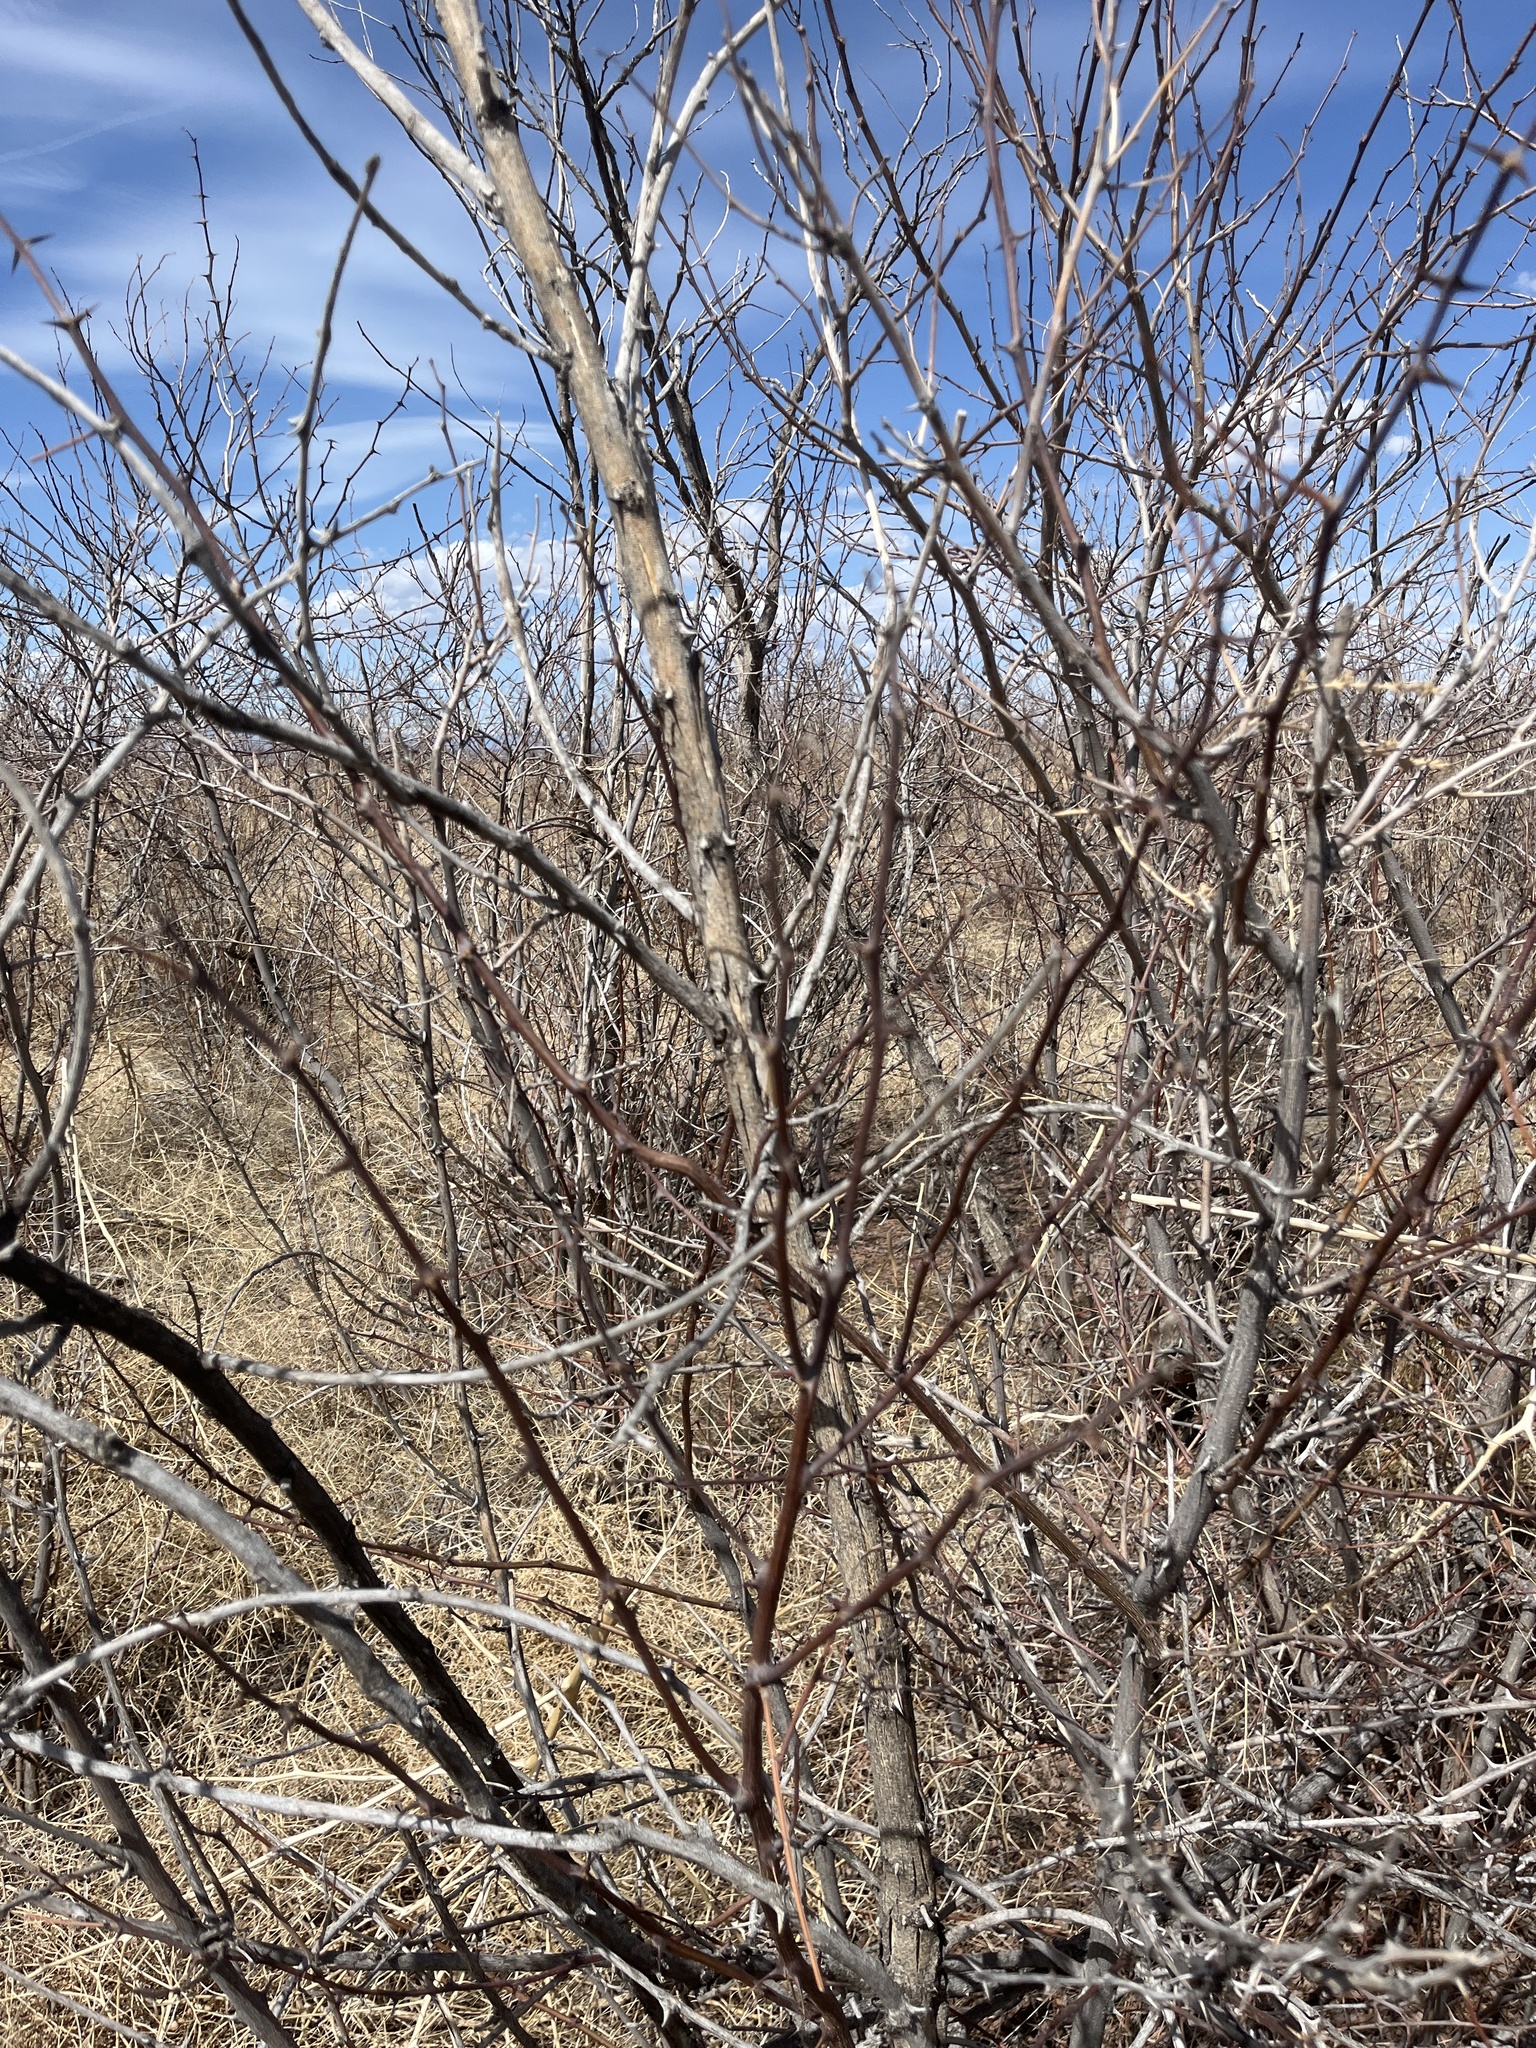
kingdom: Plantae
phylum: Tracheophyta
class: Magnoliopsida
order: Fabales
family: Fabaceae
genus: Robinia
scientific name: Robinia pseudoacacia
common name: Black locust
